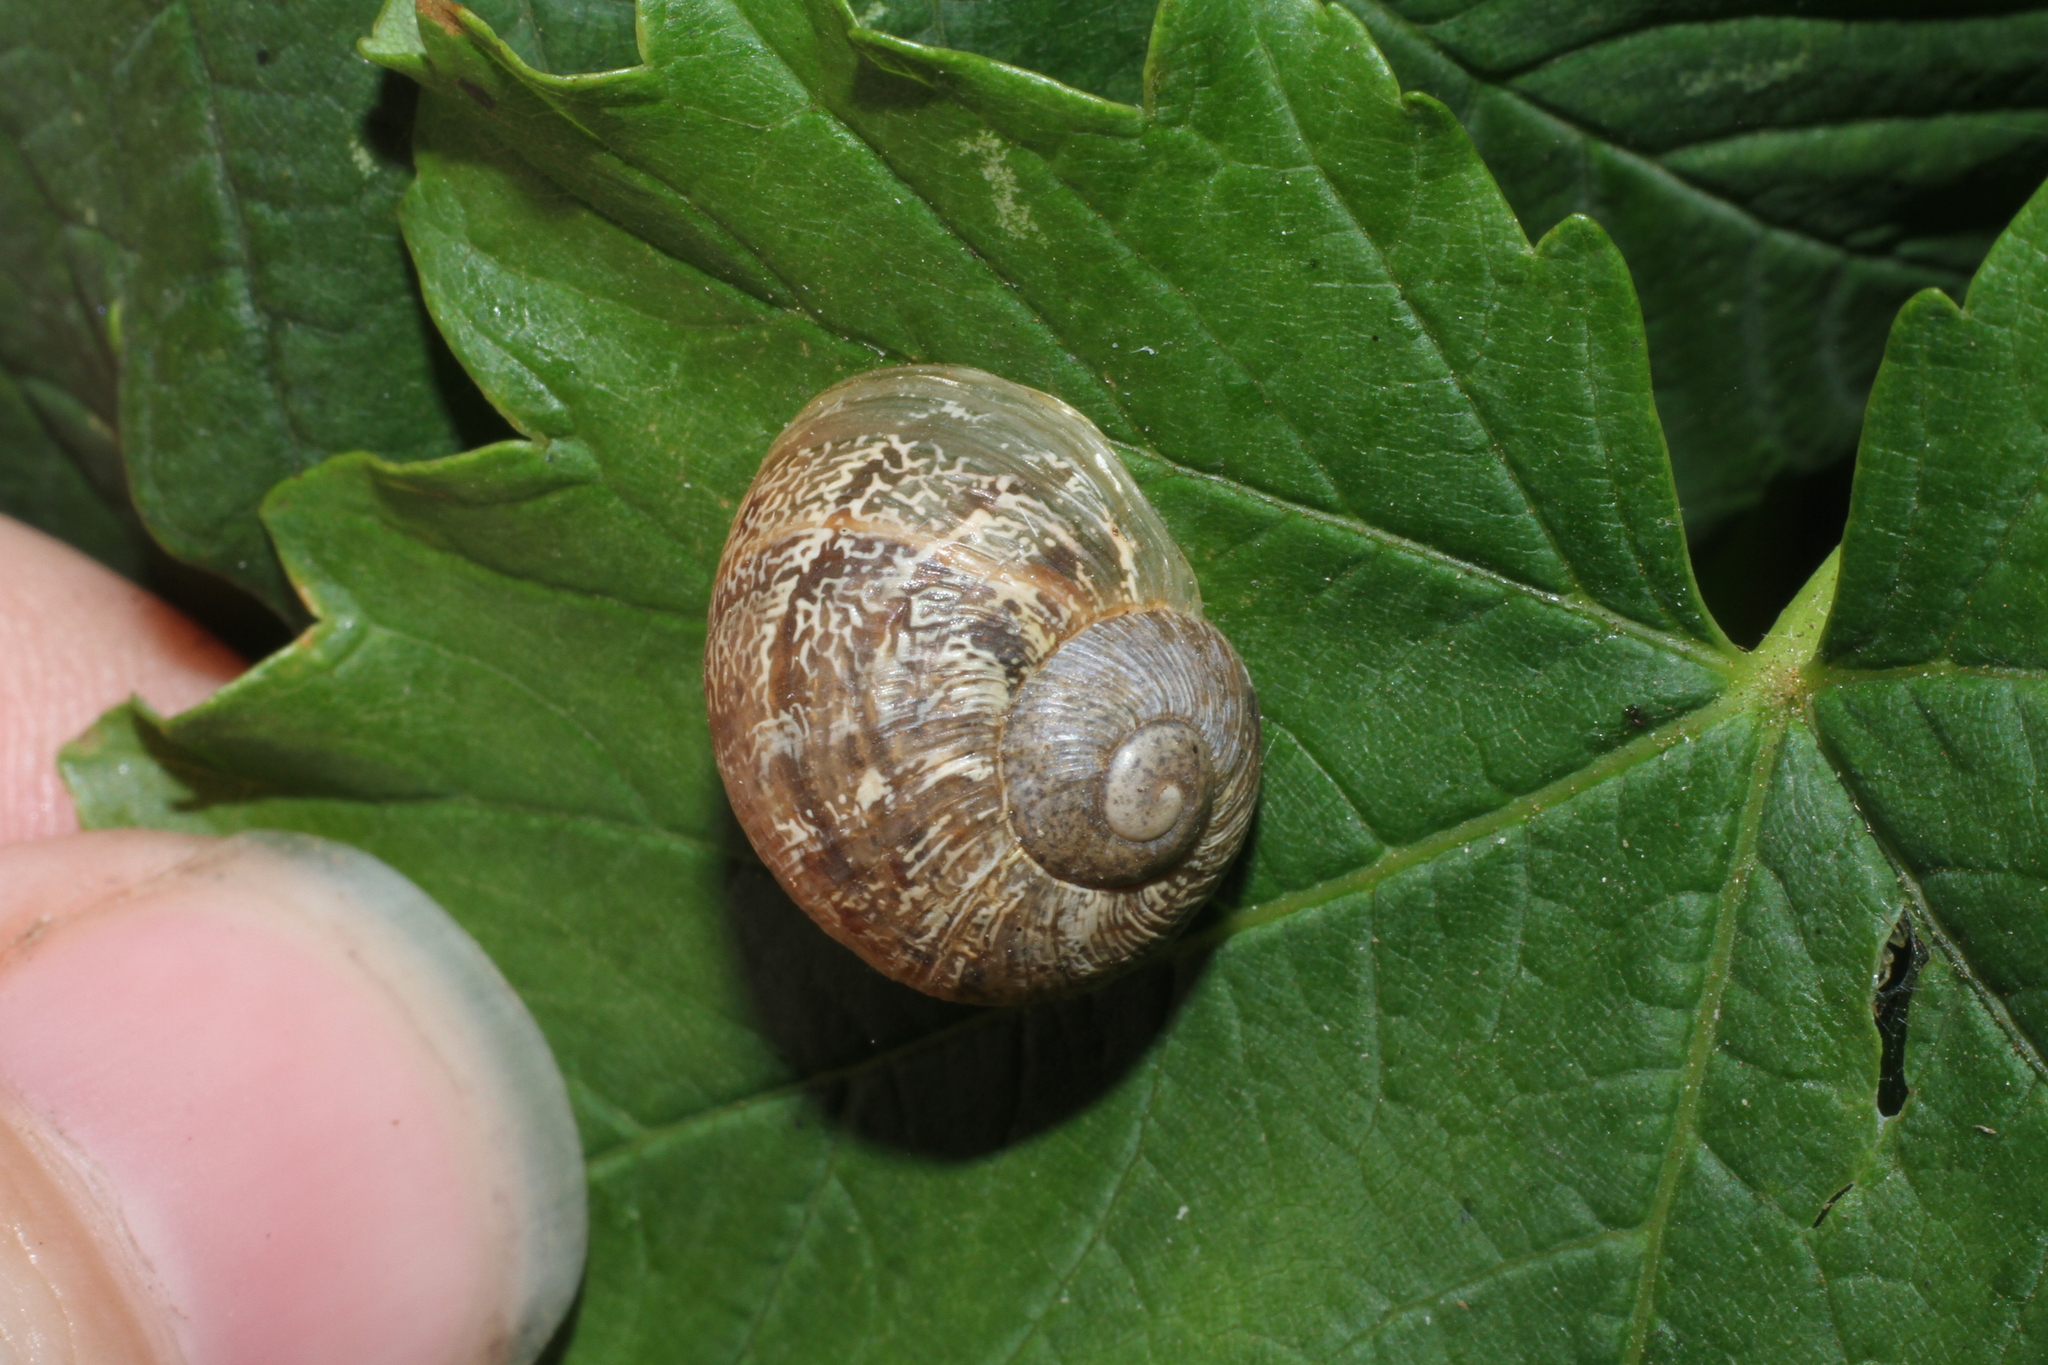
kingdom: Animalia
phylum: Mollusca
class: Gastropoda
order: Stylommatophora
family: Helicidae
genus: Cornu
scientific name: Cornu aspersum
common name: Brown garden snail
